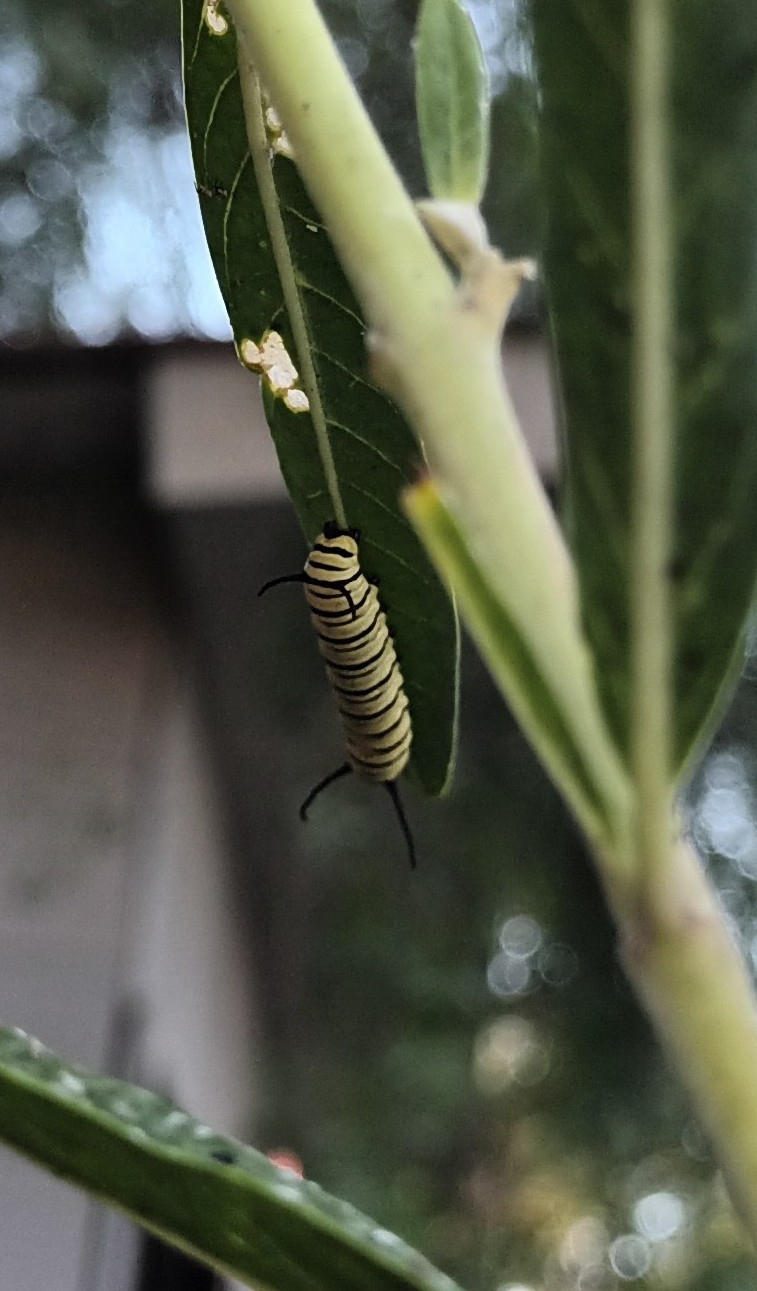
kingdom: Animalia
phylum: Arthropoda
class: Insecta
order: Lepidoptera
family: Nymphalidae
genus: Danaus
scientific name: Danaus erippus
